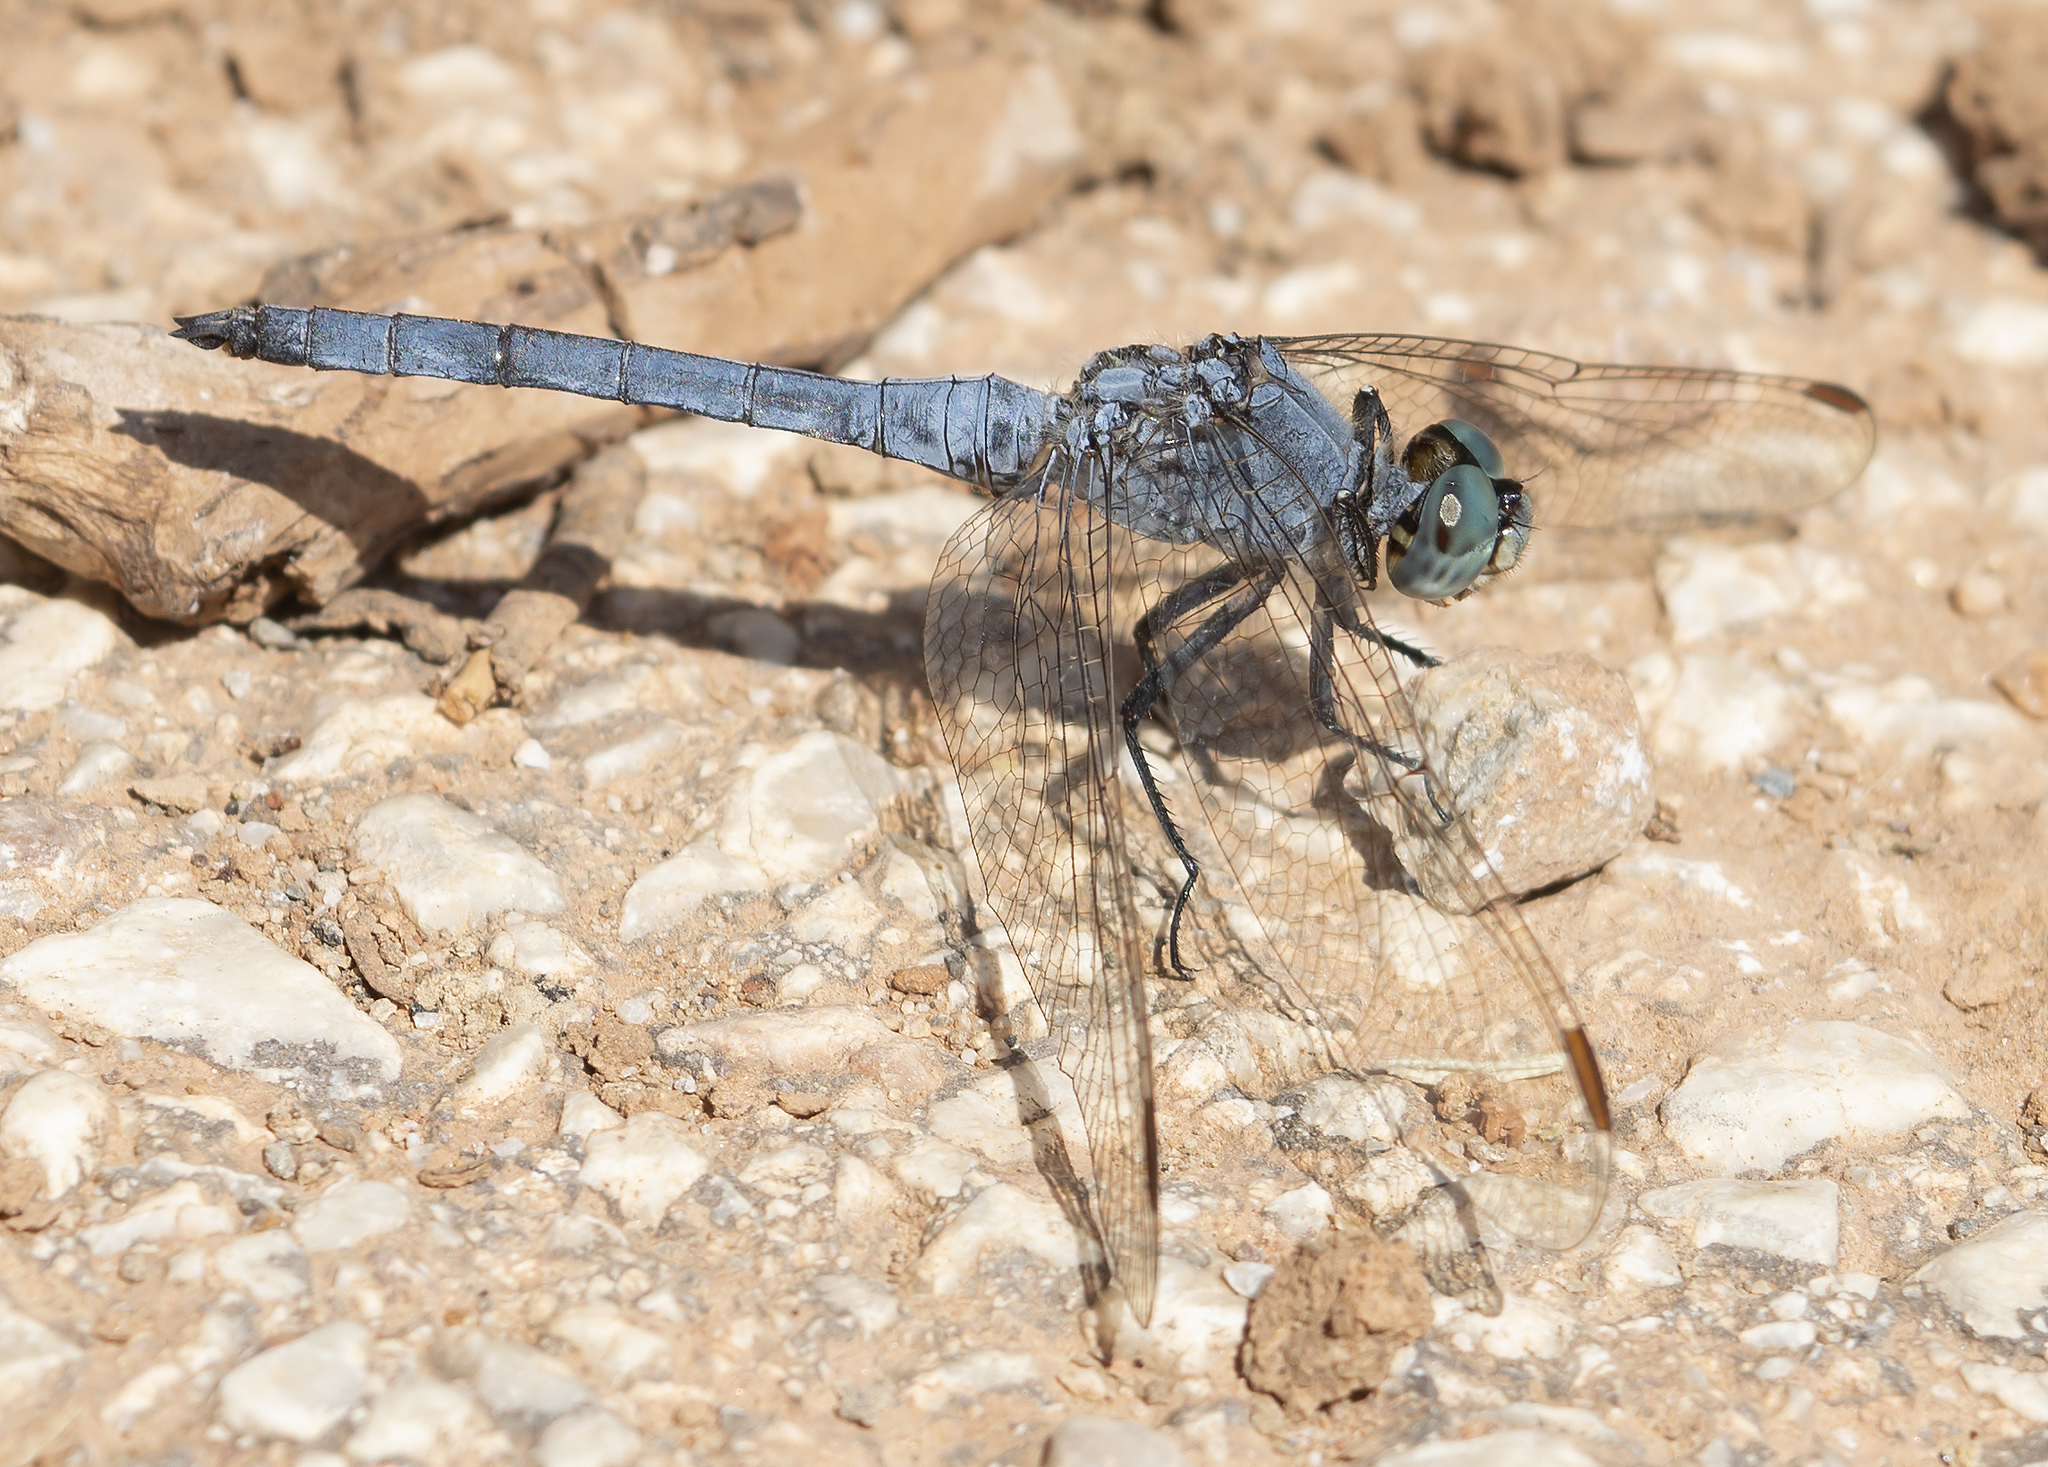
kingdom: Animalia
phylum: Arthropoda
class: Insecta
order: Odonata
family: Libellulidae
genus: Orthetrum
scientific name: Orthetrum coerulescens
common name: Keeled skimmer
